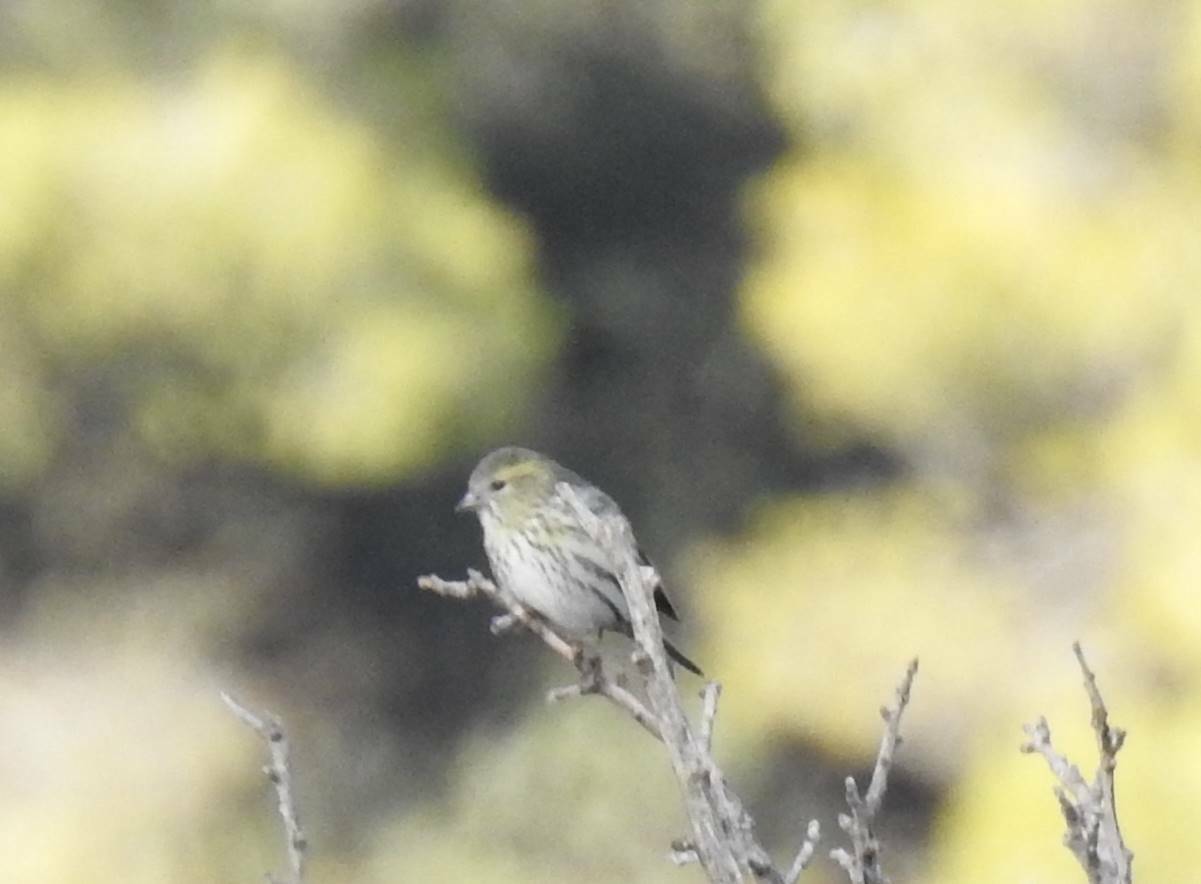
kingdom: Animalia
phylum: Chordata
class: Aves
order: Passeriformes
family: Fringillidae
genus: Spinus
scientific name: Spinus spinus
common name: Eurasian siskin
